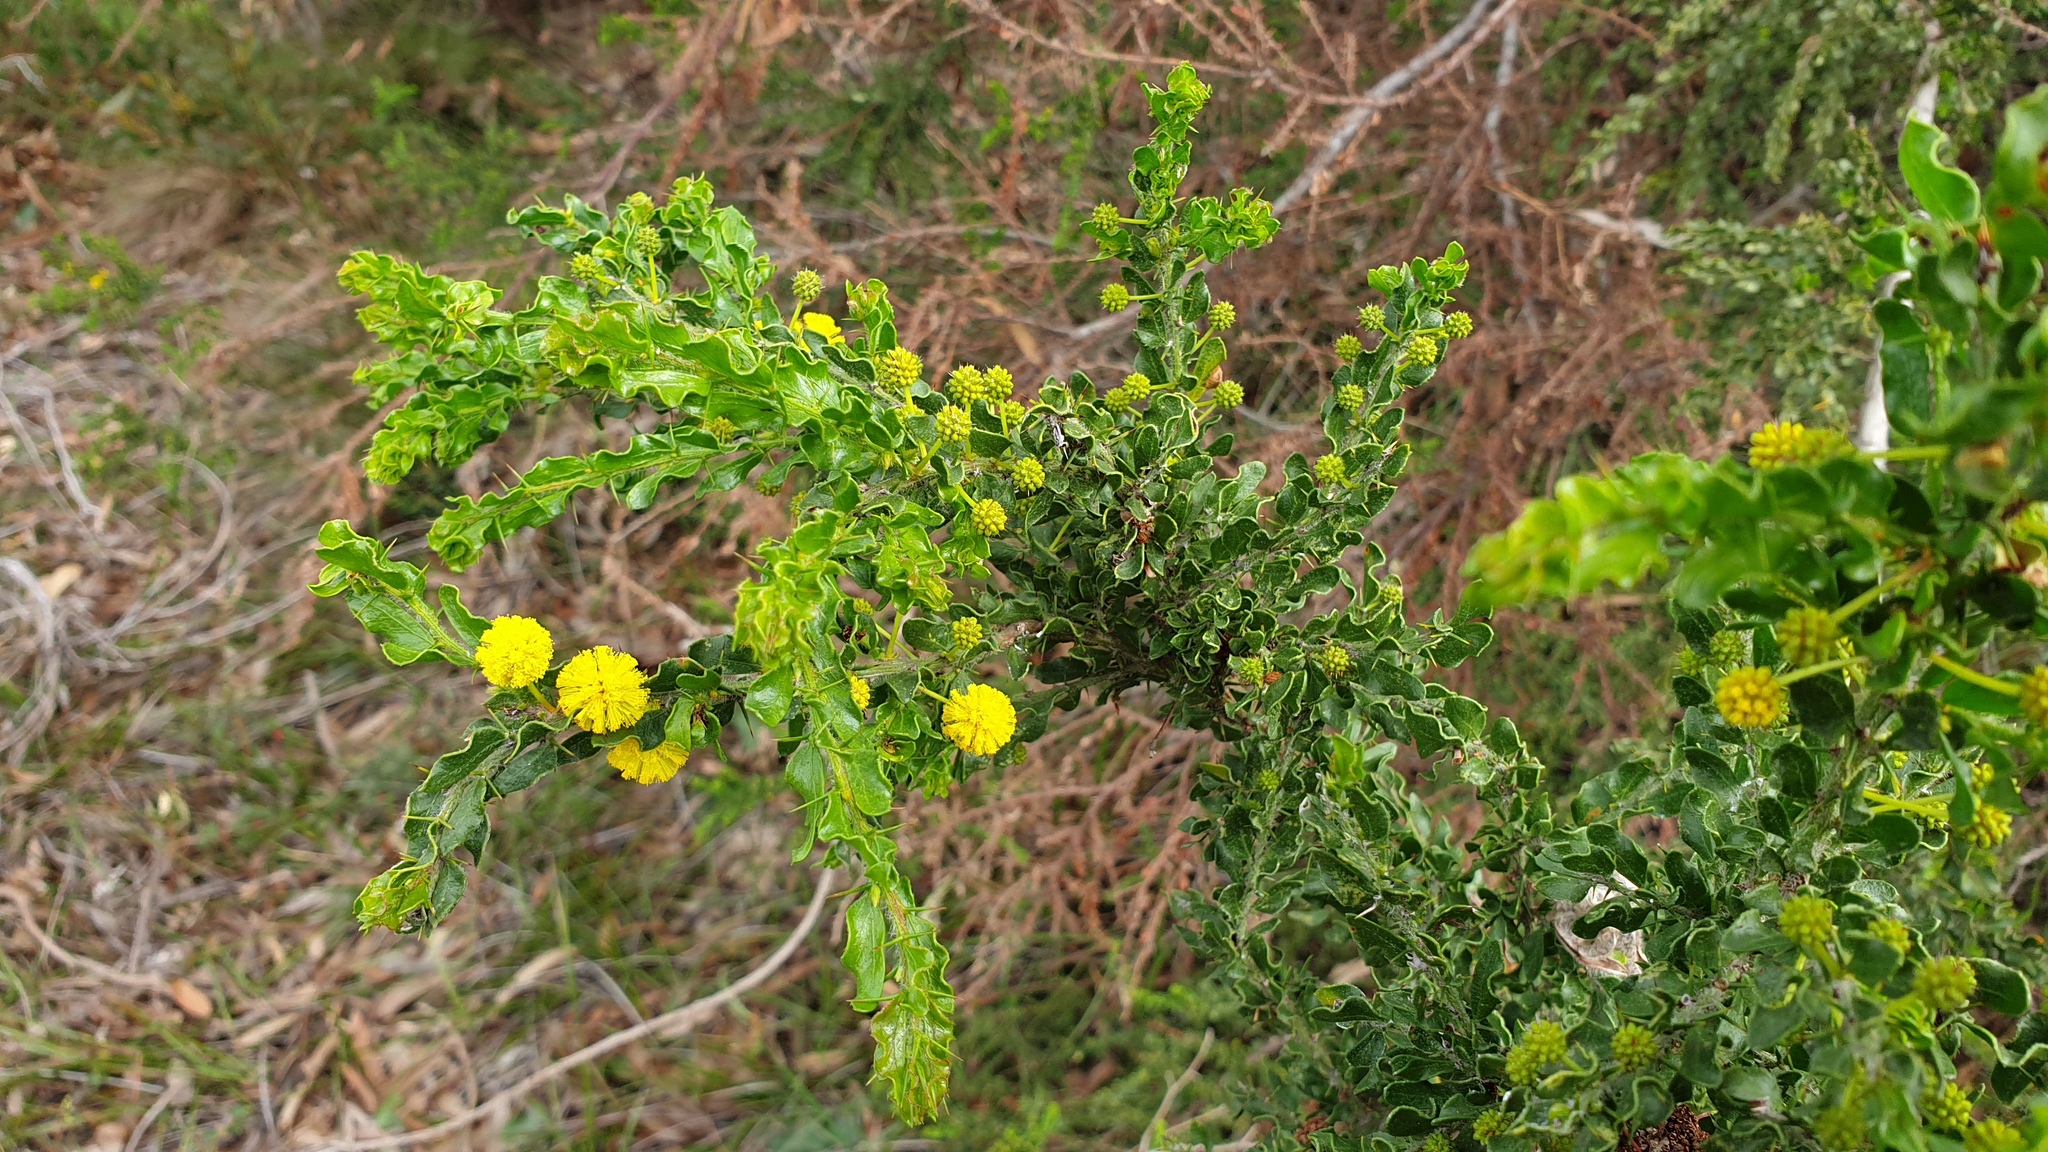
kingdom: Plantae
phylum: Tracheophyta
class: Magnoliopsida
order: Fabales
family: Fabaceae
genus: Acacia
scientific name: Acacia paradoxa
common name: Paradox acacia
